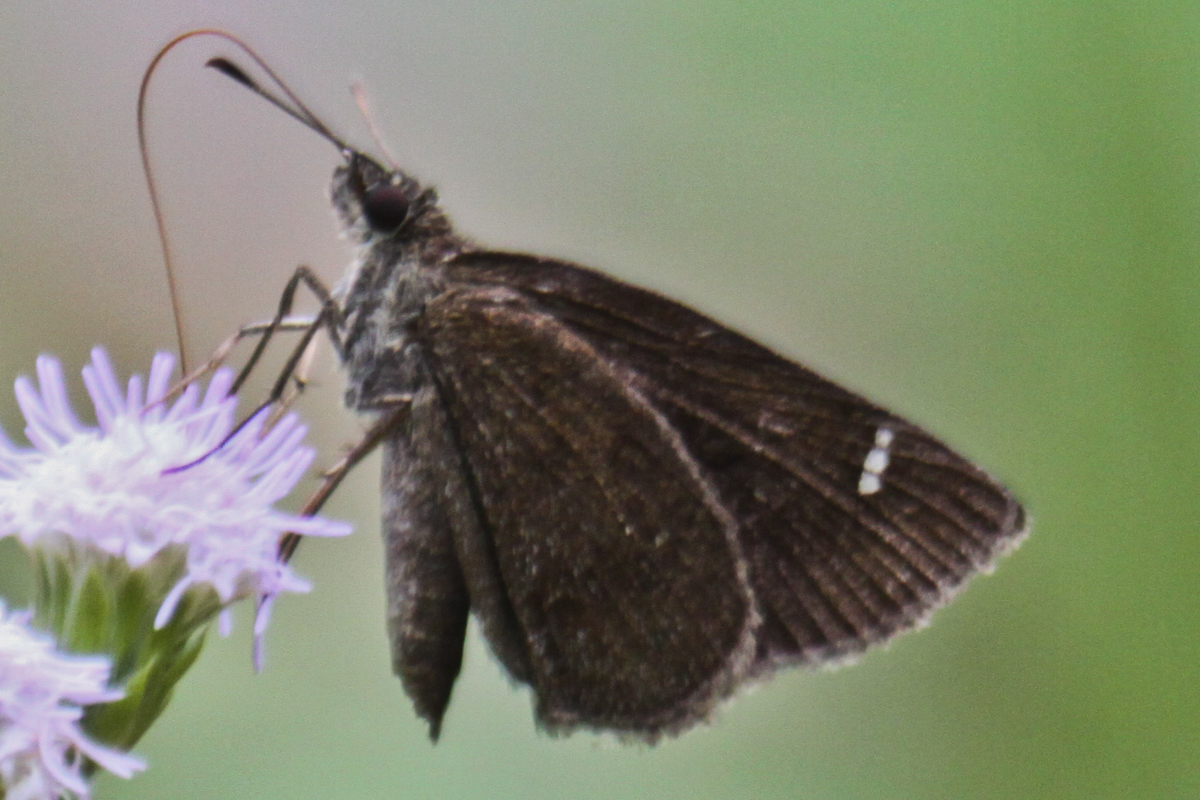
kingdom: Animalia
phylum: Arthropoda
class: Insecta
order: Lepidoptera
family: Hesperiidae
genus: Astictopterus
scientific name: Astictopterus jama
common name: Forest hopper
